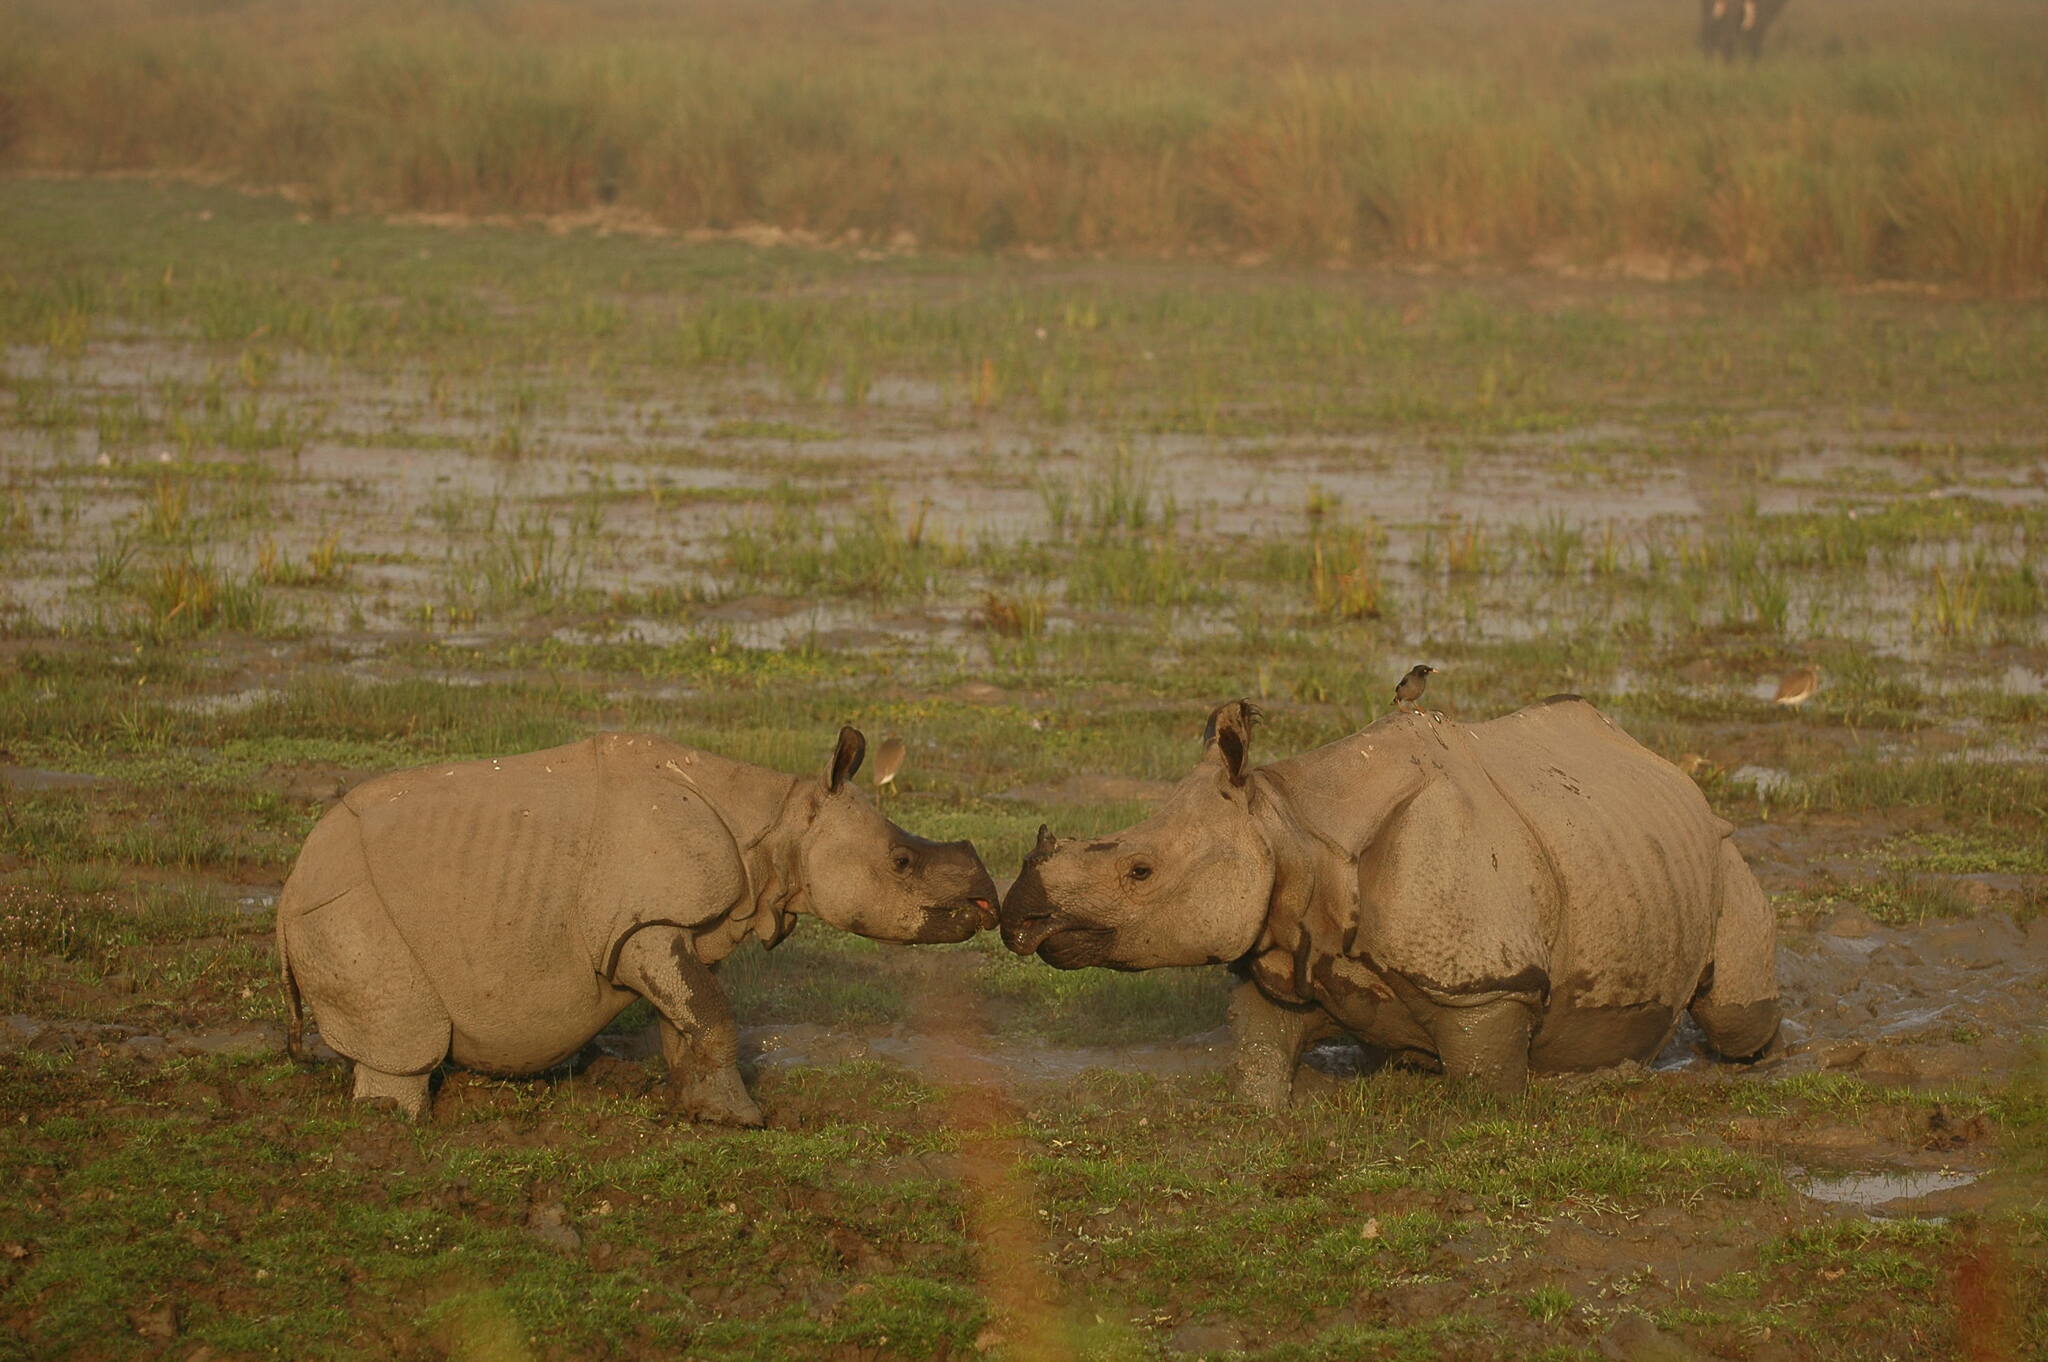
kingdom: Animalia
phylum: Chordata
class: Mammalia
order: Perissodactyla
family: Rhinocerotidae
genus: Rhinoceros
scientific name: Rhinoceros unicornis
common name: Indian rhinoceros
